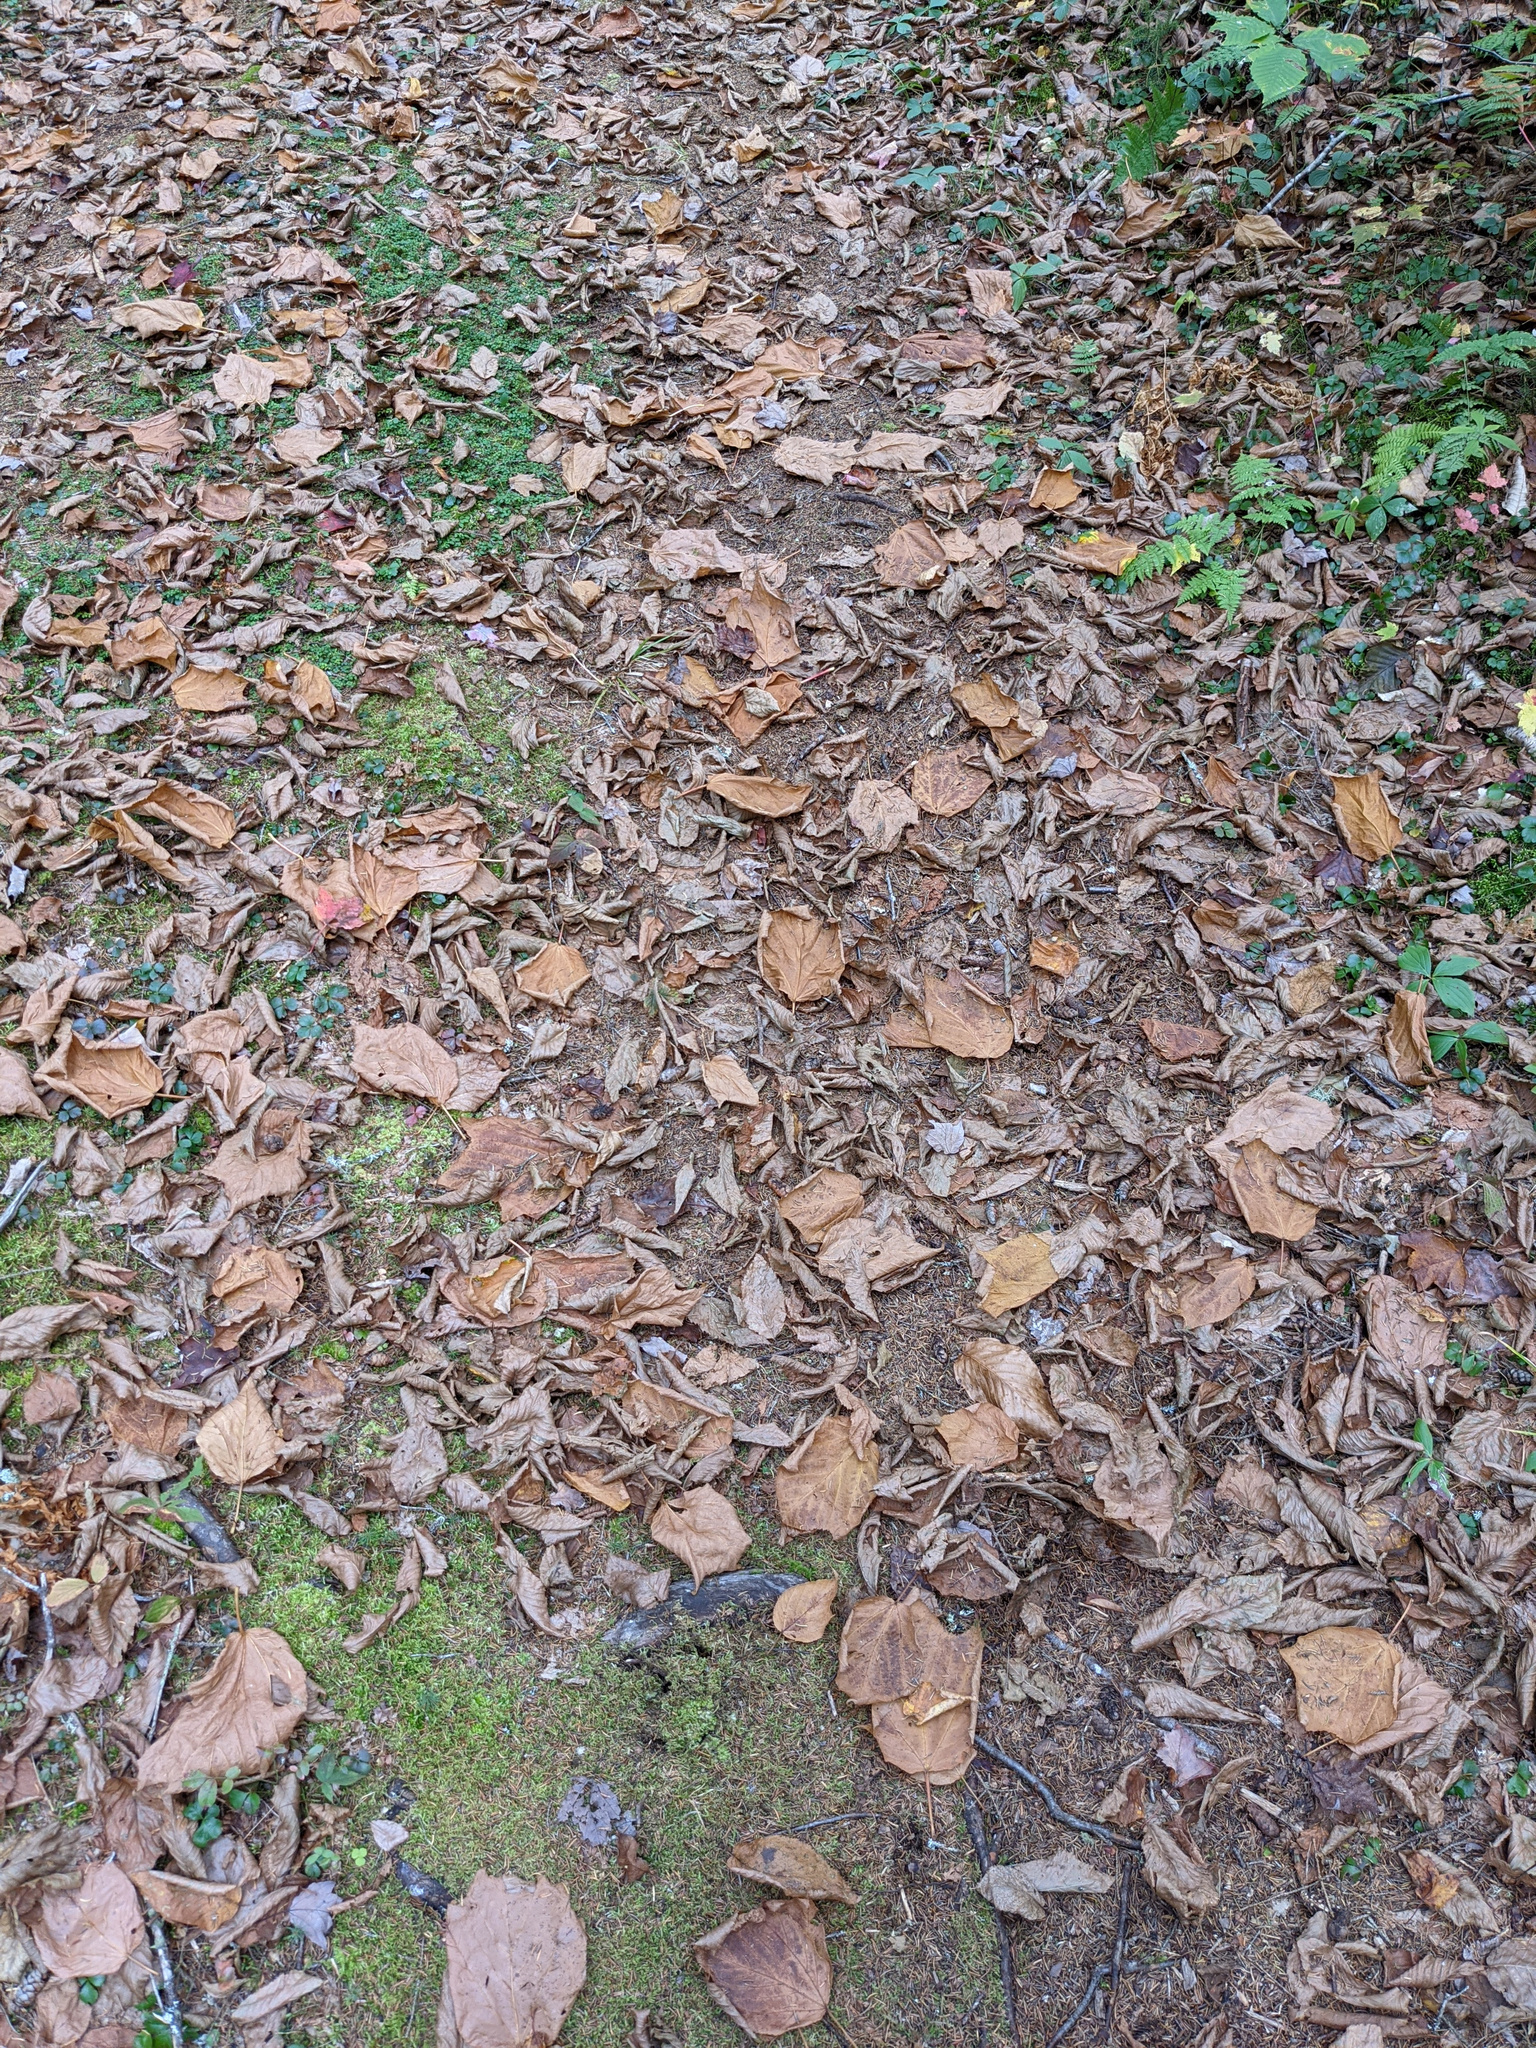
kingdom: Plantae
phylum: Tracheophyta
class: Magnoliopsida
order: Sapindales
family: Sapindaceae
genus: Acer
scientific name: Acer pensylvanicum
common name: Moosewood
